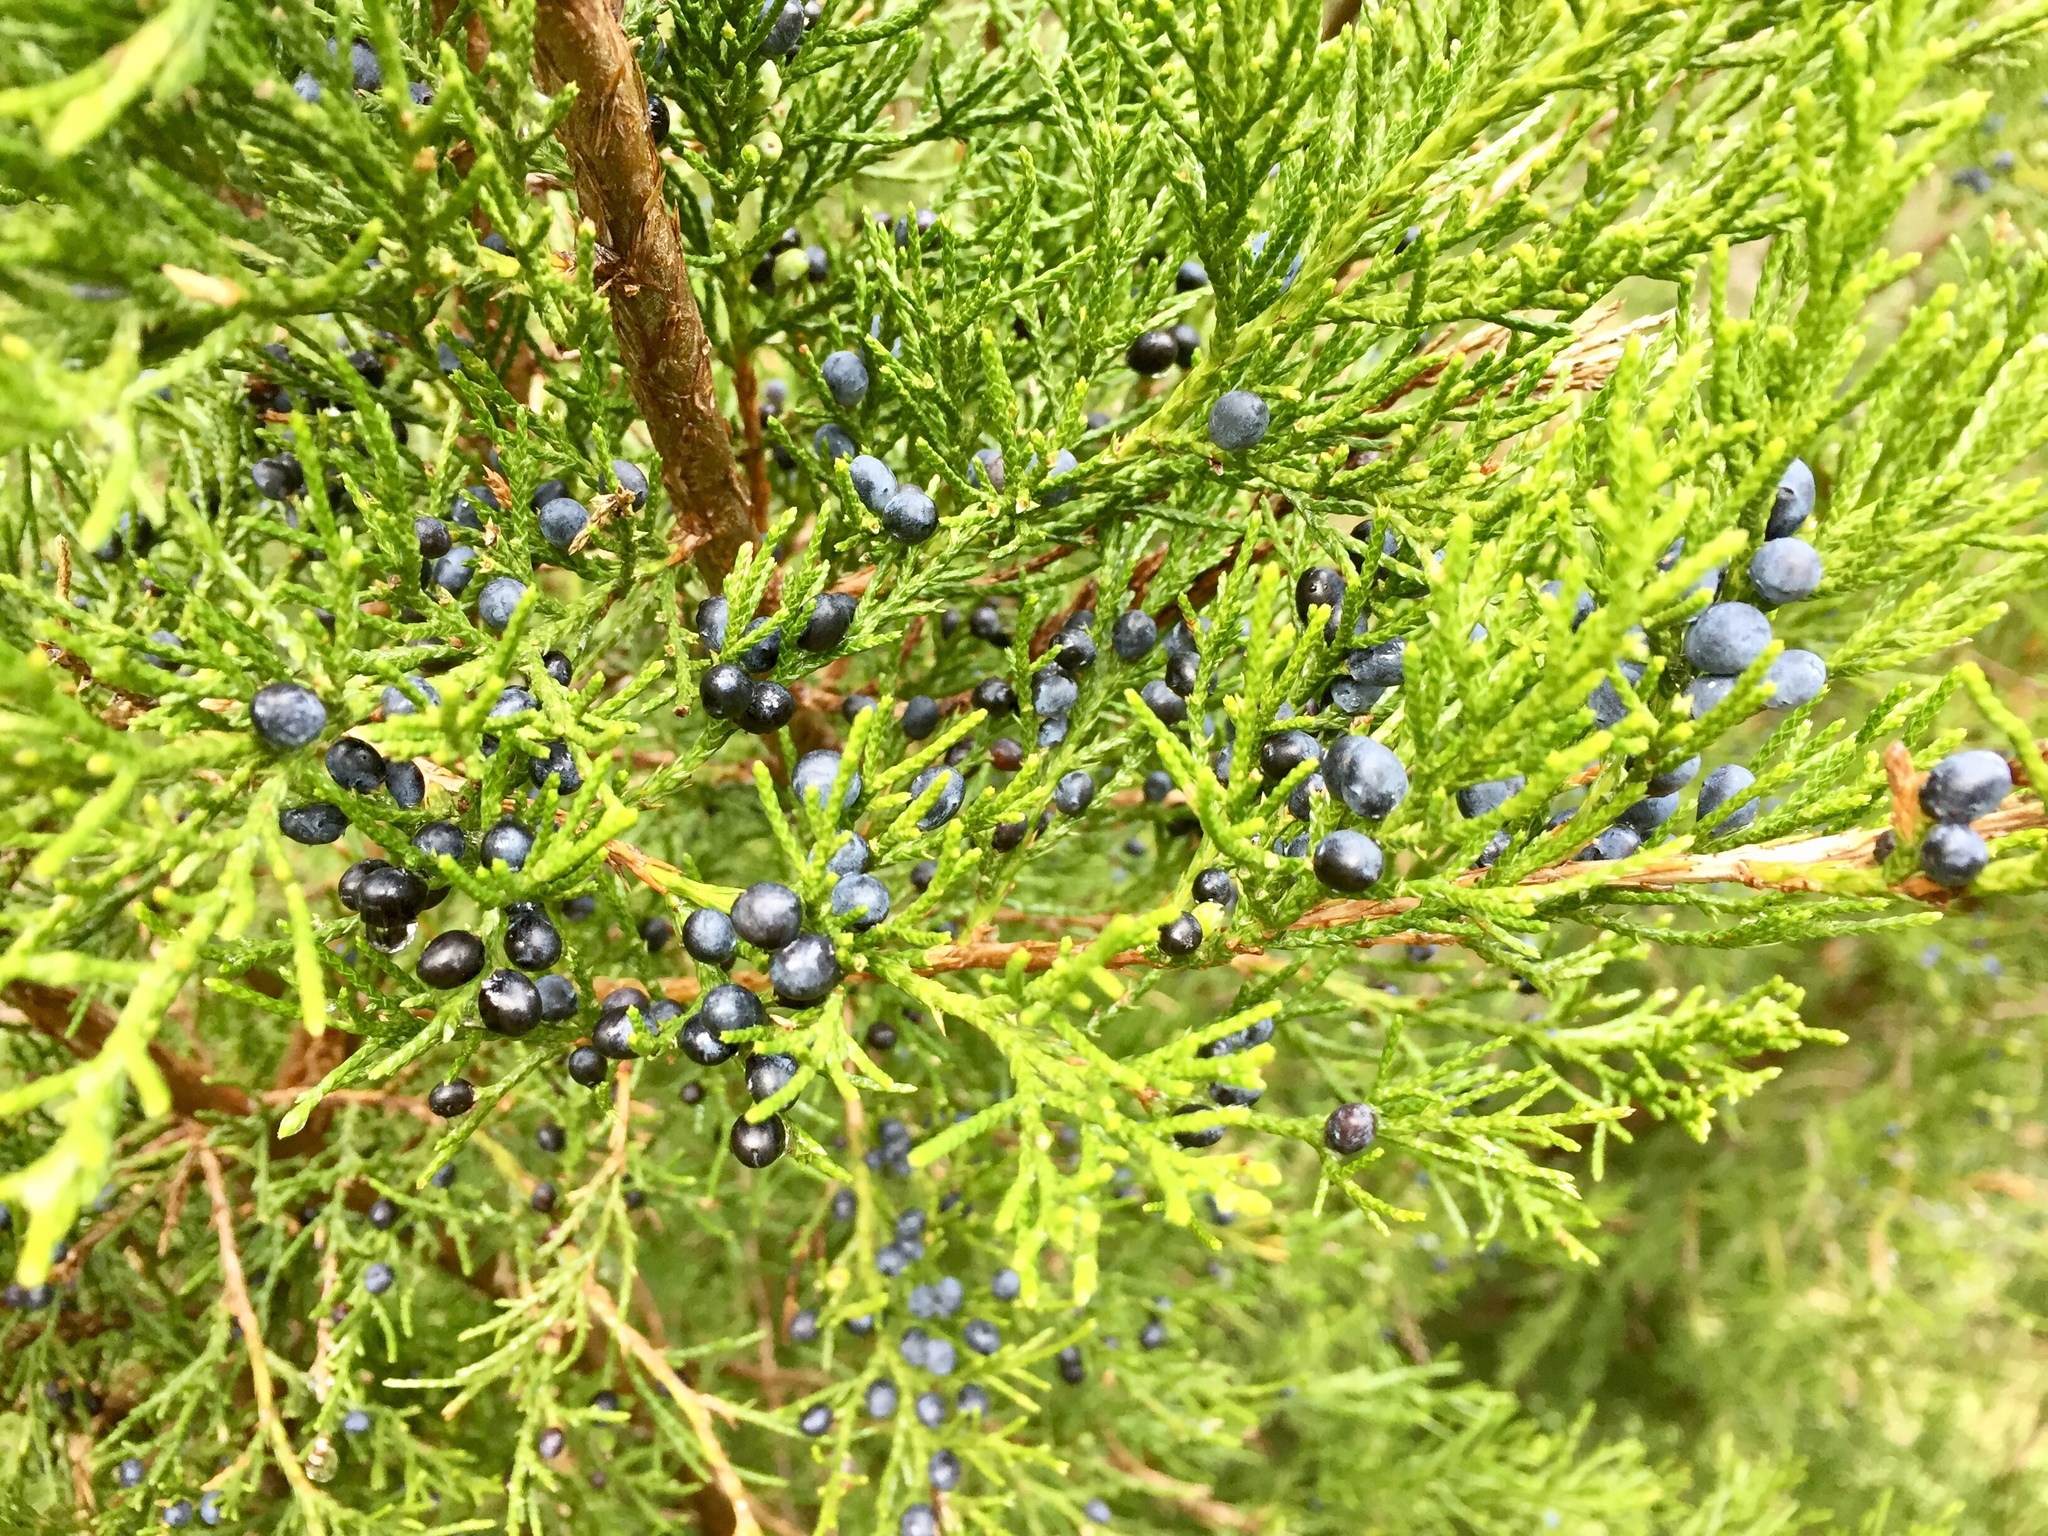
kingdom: Plantae
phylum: Tracheophyta
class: Pinopsida
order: Pinales
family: Cupressaceae
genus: Juniperus
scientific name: Juniperus virginiana
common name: Red juniper
